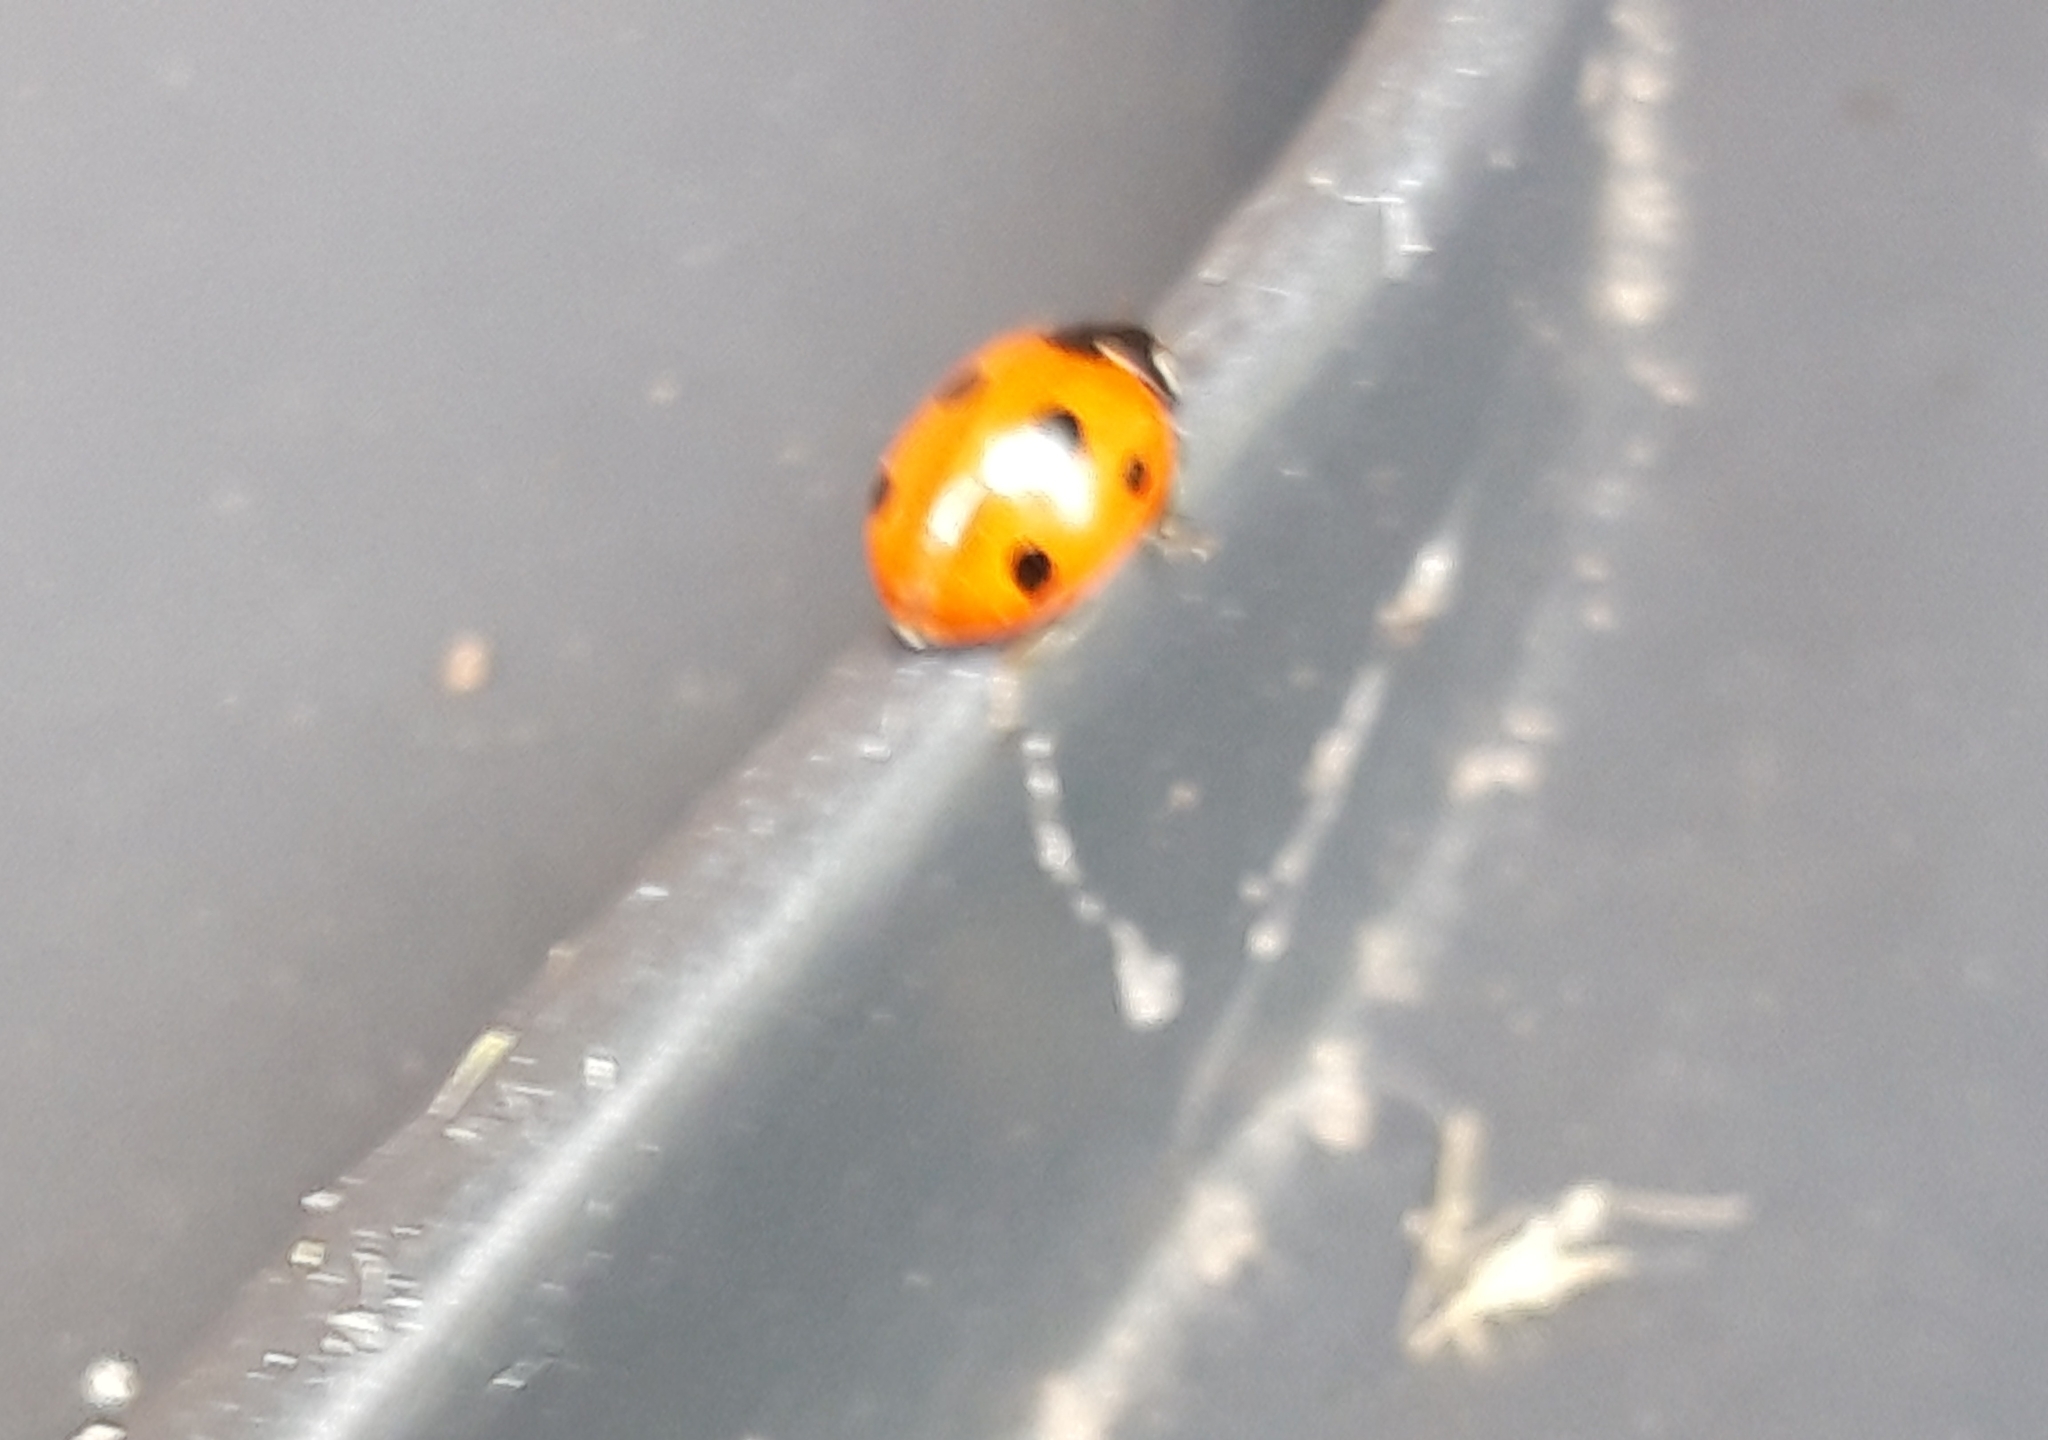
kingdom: Animalia
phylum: Arthropoda
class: Insecta
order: Coleoptera
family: Coccinellidae
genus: Coccinella
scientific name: Coccinella septempunctata
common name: Sevenspotted lady beetle
